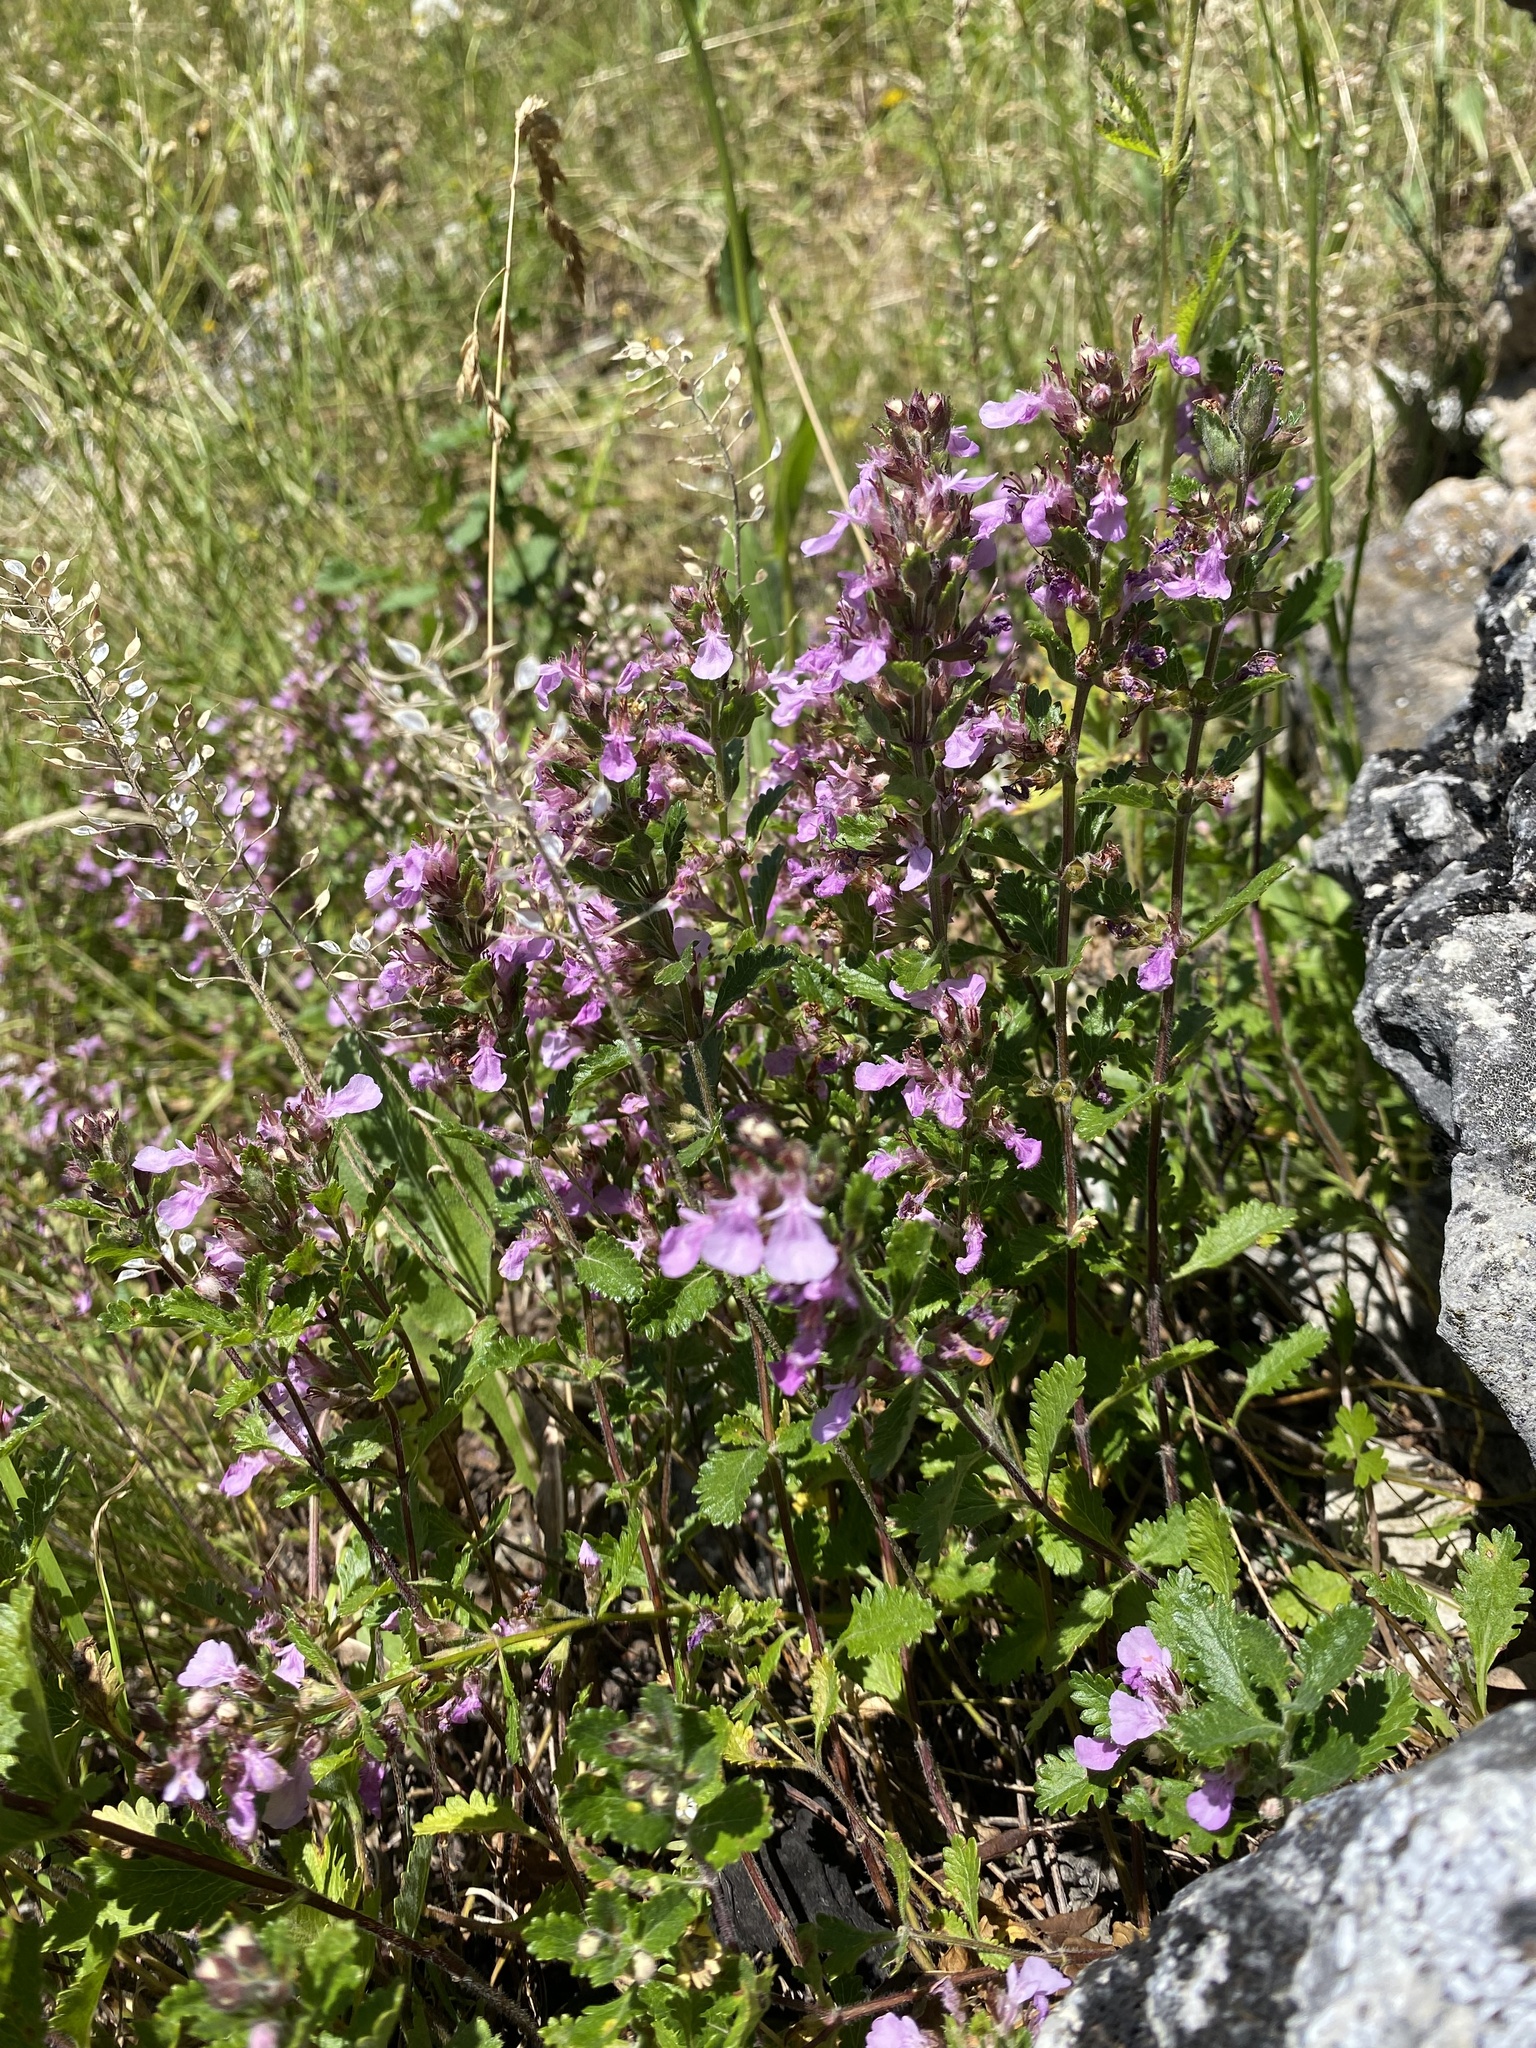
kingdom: Plantae
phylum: Tracheophyta
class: Magnoliopsida
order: Lamiales
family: Lamiaceae
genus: Teucrium
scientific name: Teucrium chamaedrys
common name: Wall germander
